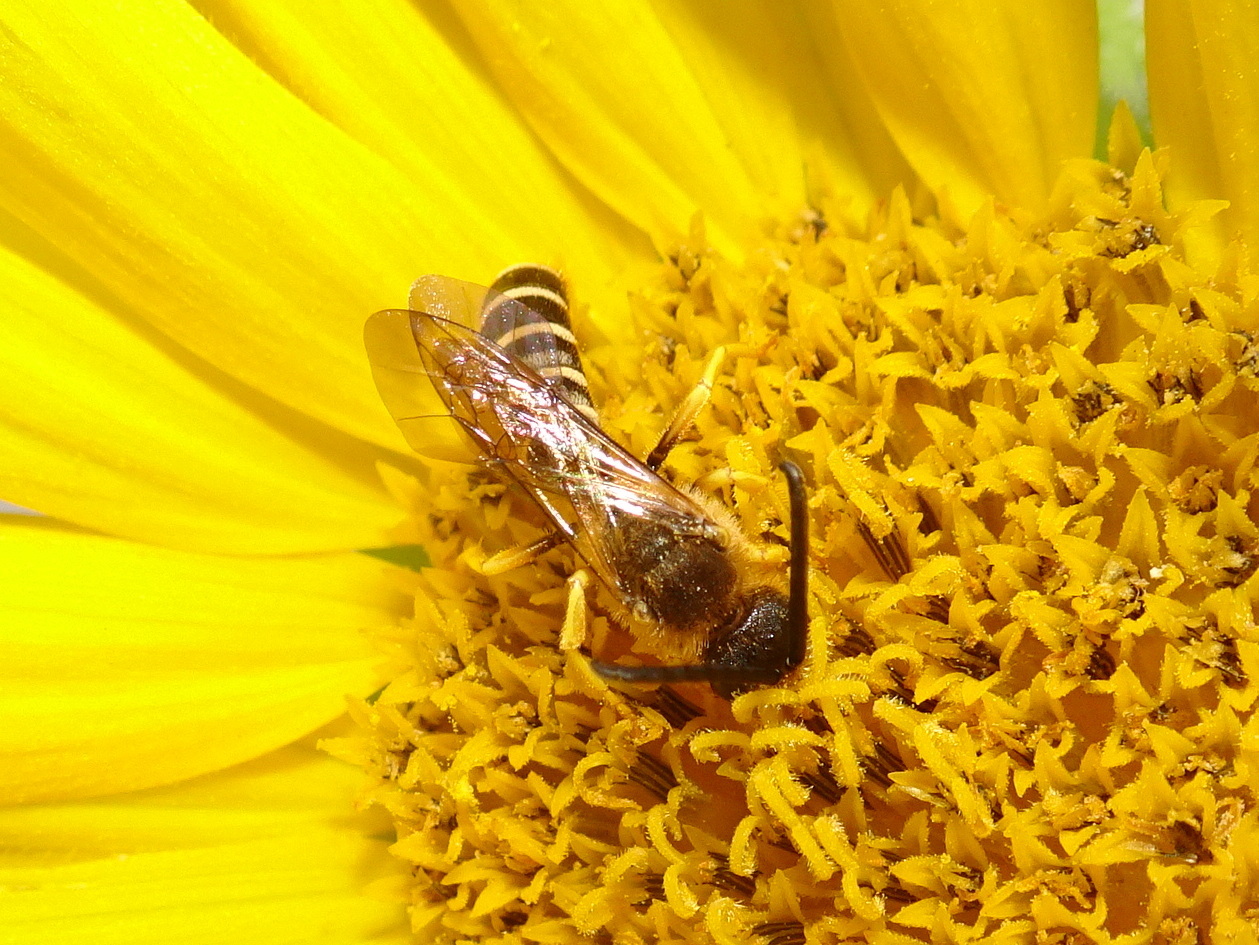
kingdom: Animalia
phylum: Arthropoda
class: Insecta
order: Hymenoptera
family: Halictidae
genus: Halictus
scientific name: Halictus scabiosae
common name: Great banded furrow bee
